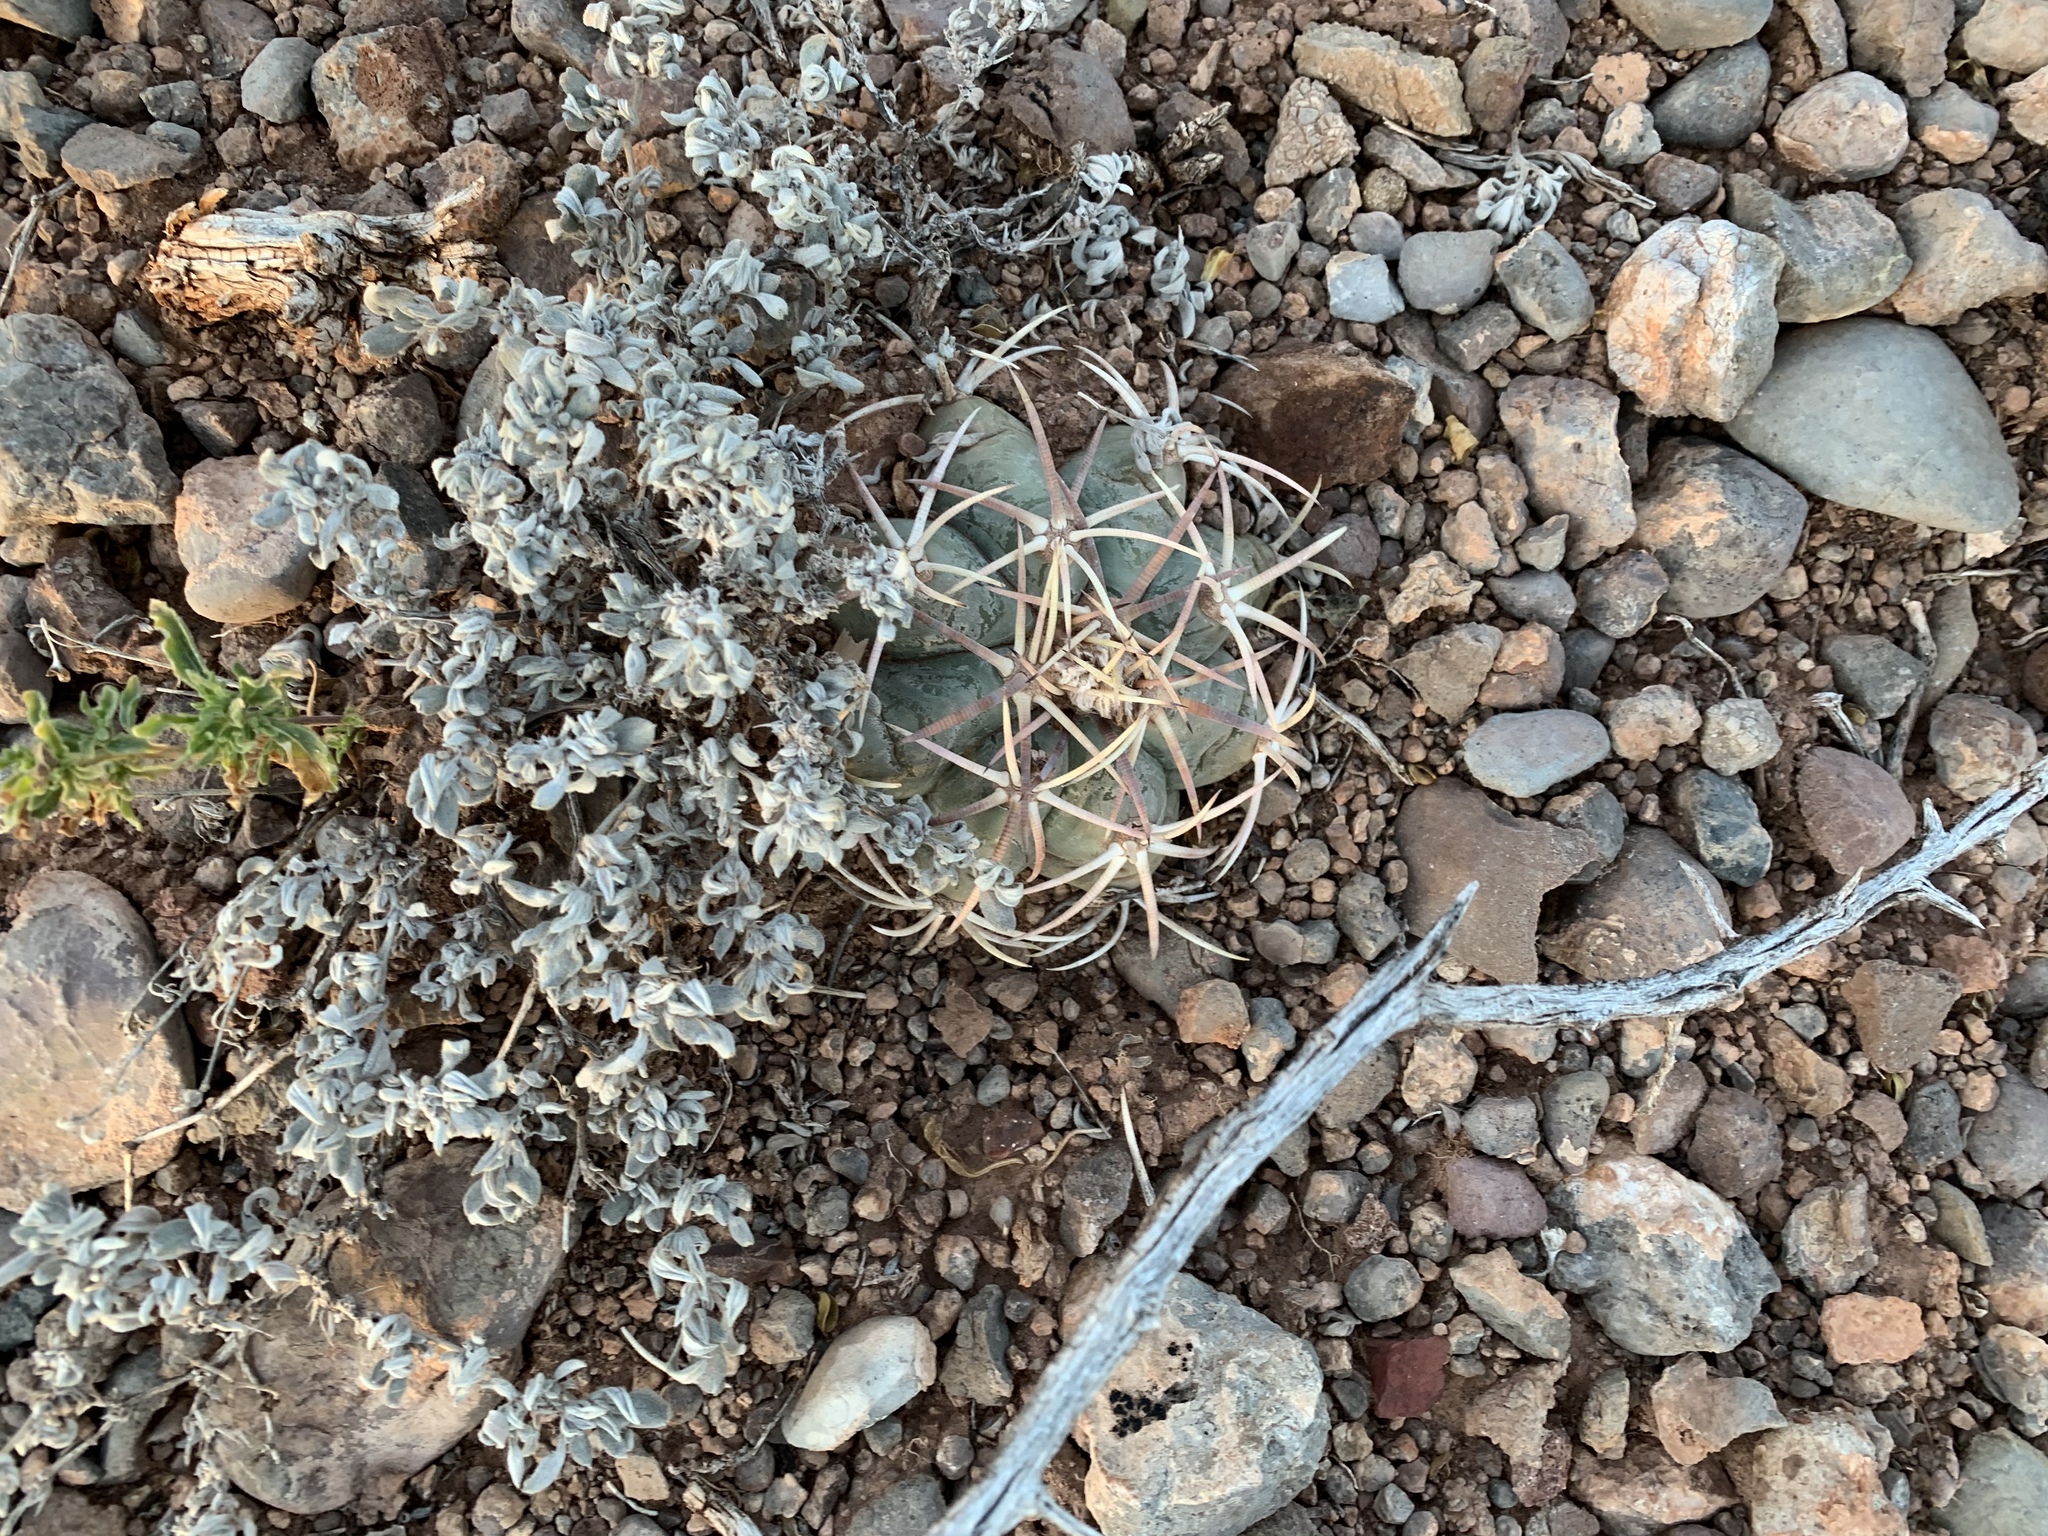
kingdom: Plantae
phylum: Tracheophyta
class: Magnoliopsida
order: Caryophyllales
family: Cactaceae
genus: Echinocactus
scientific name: Echinocactus horizonthalonius
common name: Devilshead
